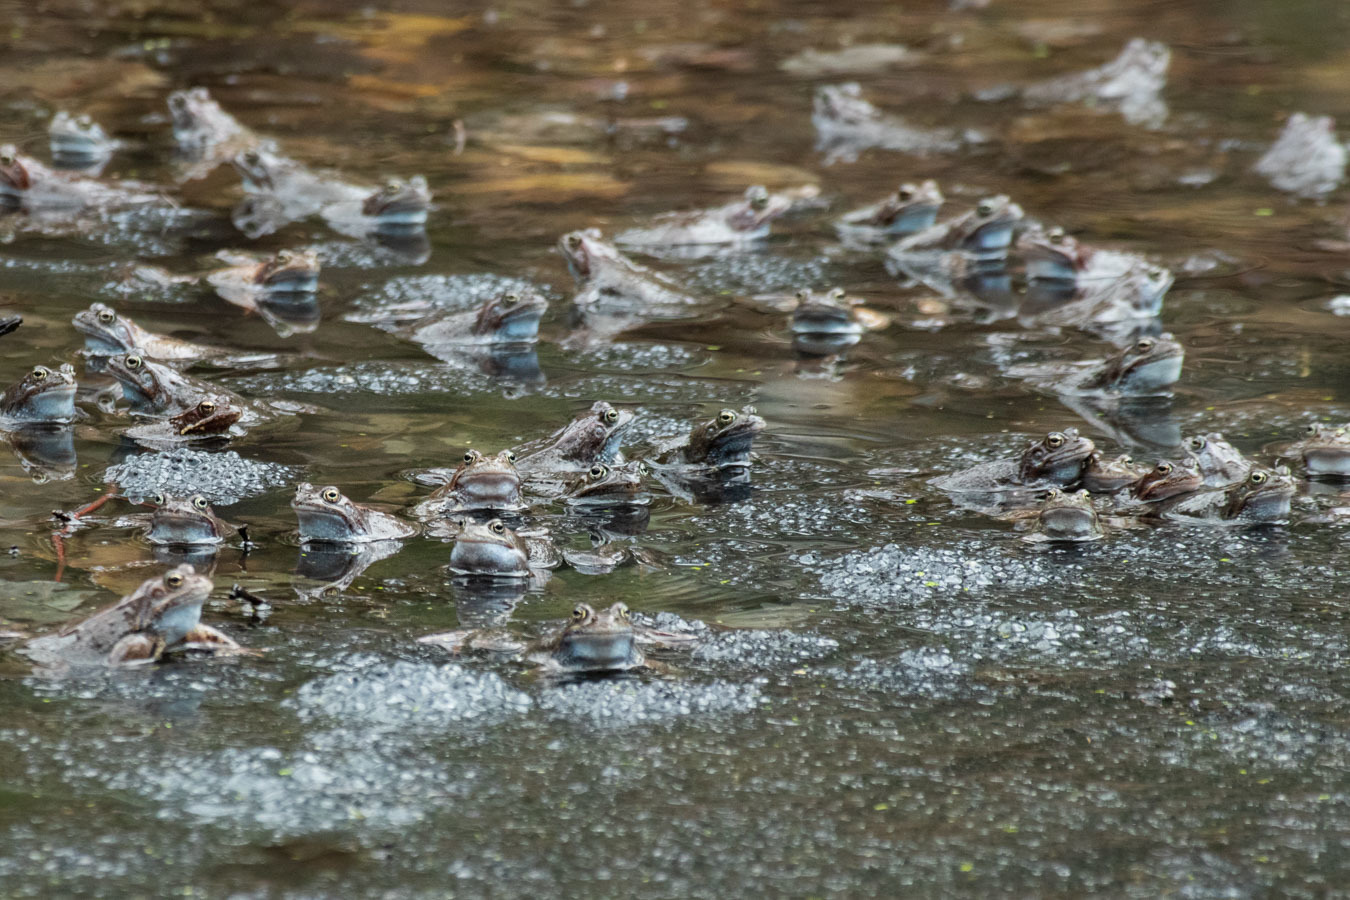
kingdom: Animalia
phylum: Chordata
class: Amphibia
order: Anura
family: Ranidae
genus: Rana
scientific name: Rana temporaria
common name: Common frog
